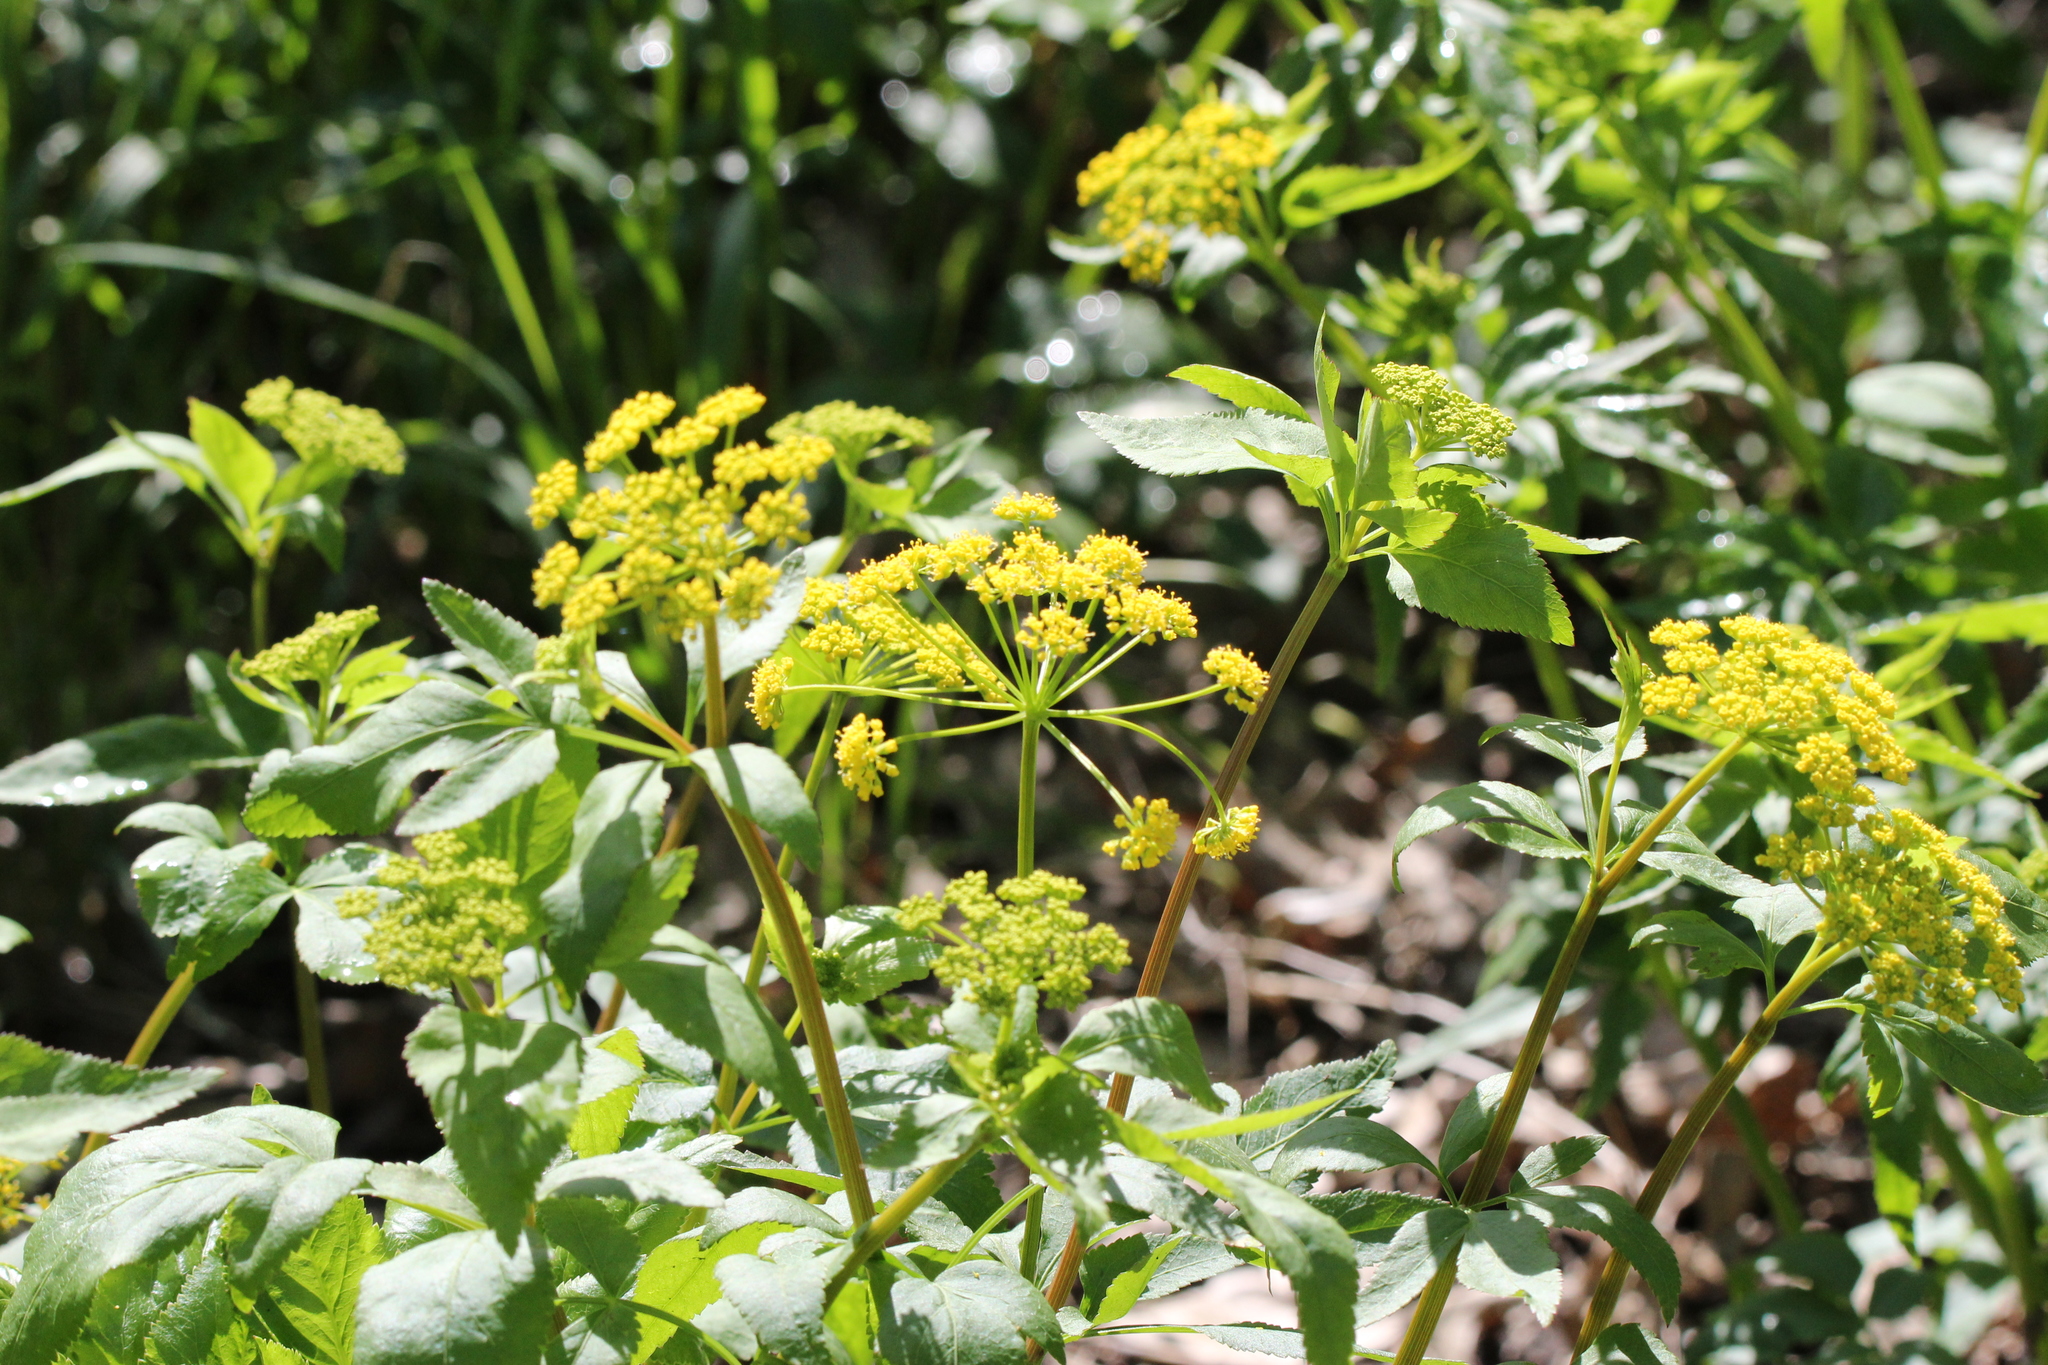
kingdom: Plantae
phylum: Tracheophyta
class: Magnoliopsida
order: Apiales
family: Apiaceae
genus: Zizia
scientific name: Zizia aurea
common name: Golden alexanders
